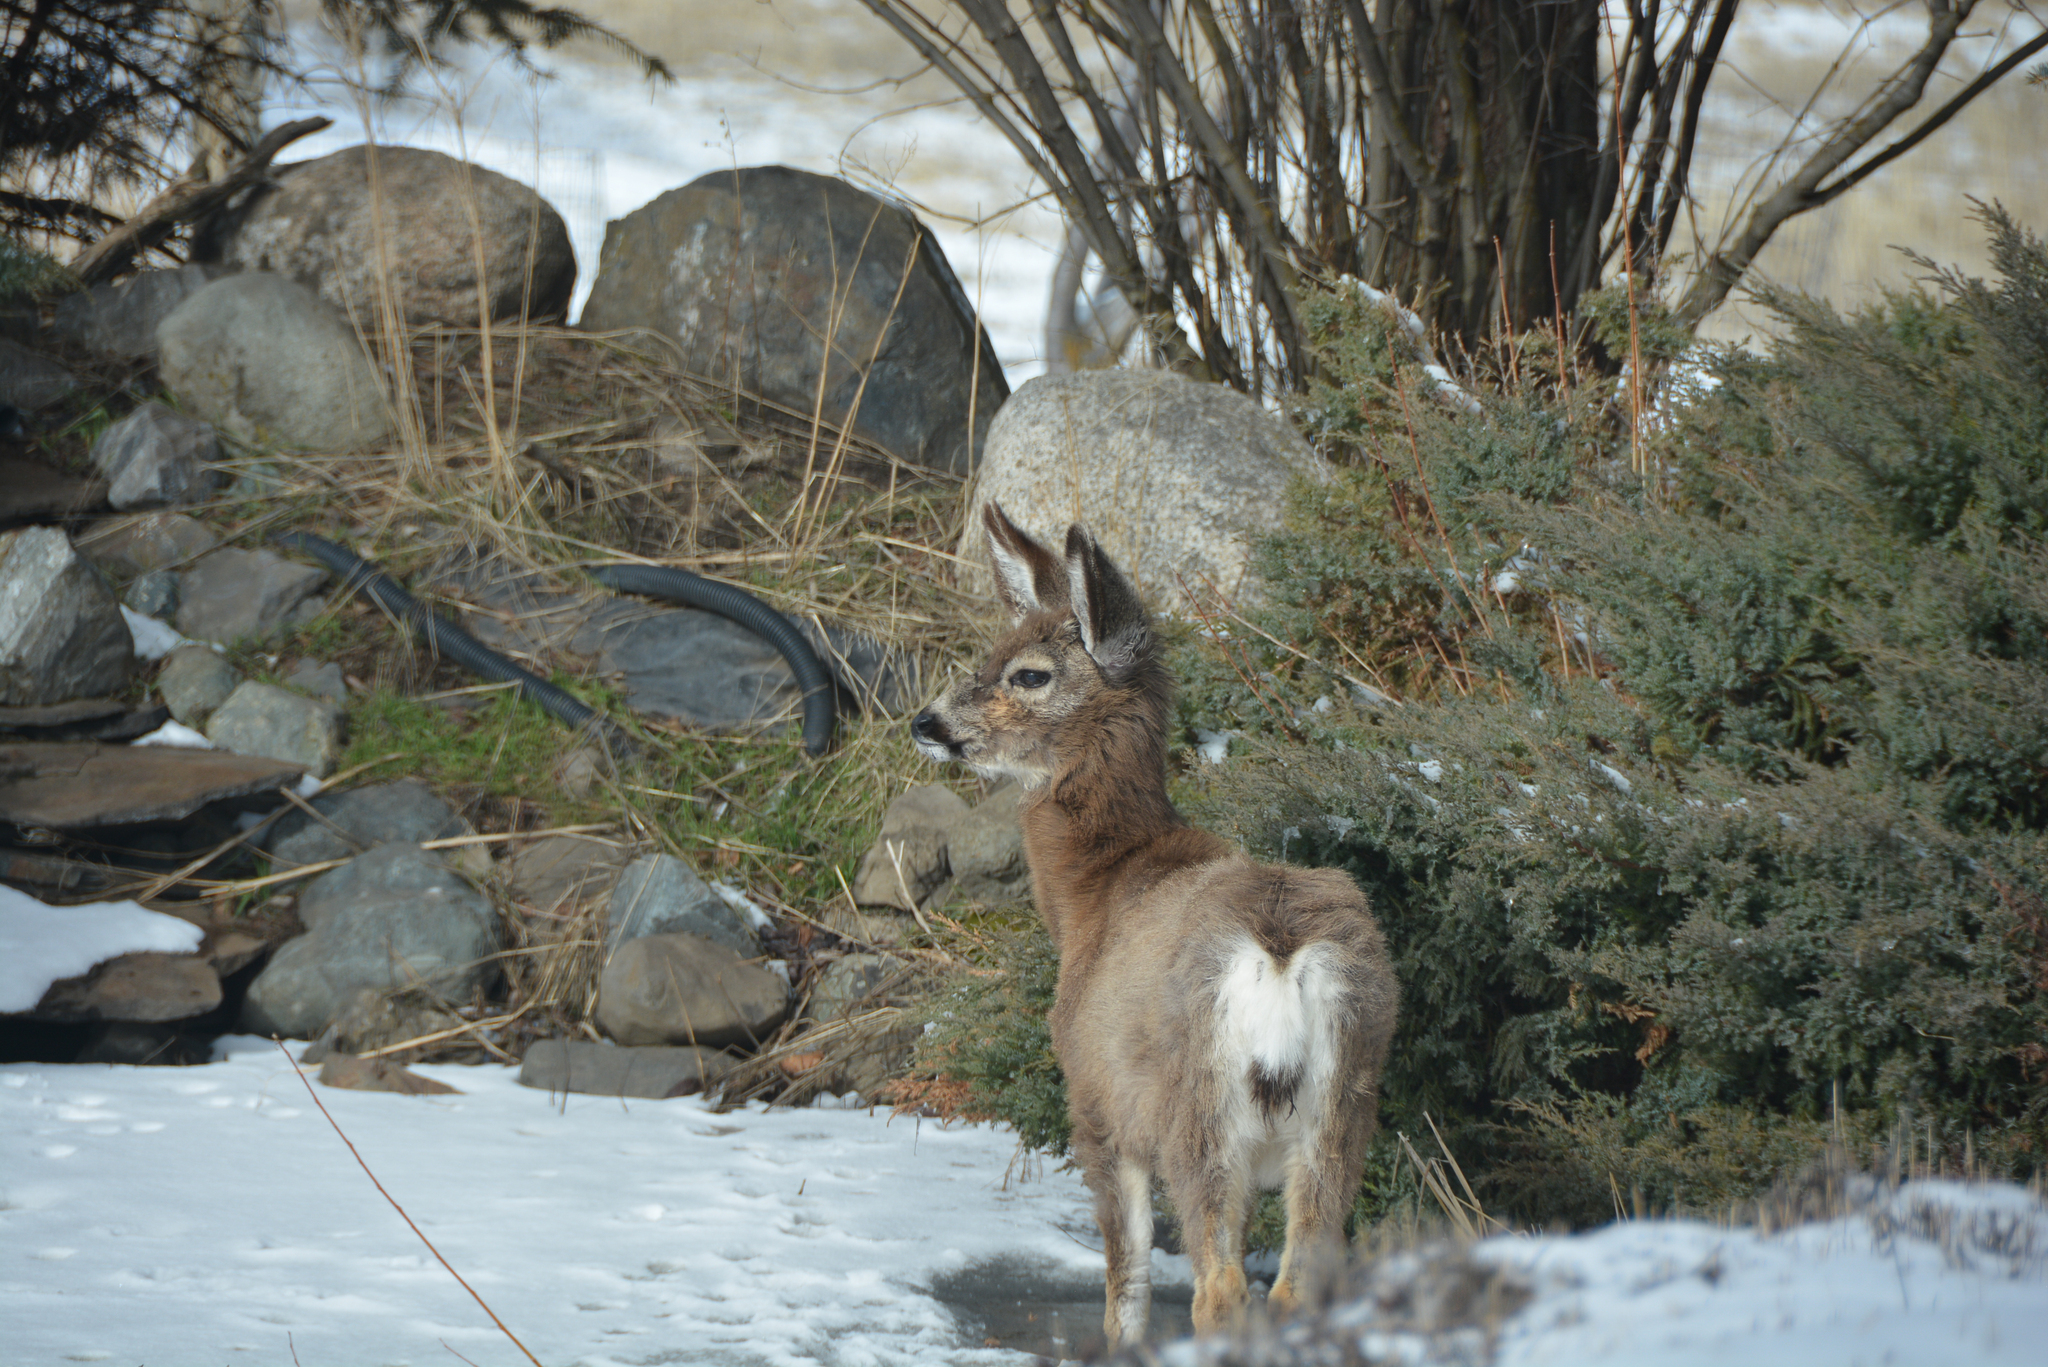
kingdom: Animalia
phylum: Chordata
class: Mammalia
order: Artiodactyla
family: Cervidae
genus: Odocoileus
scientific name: Odocoileus hemionus
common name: Mule deer
